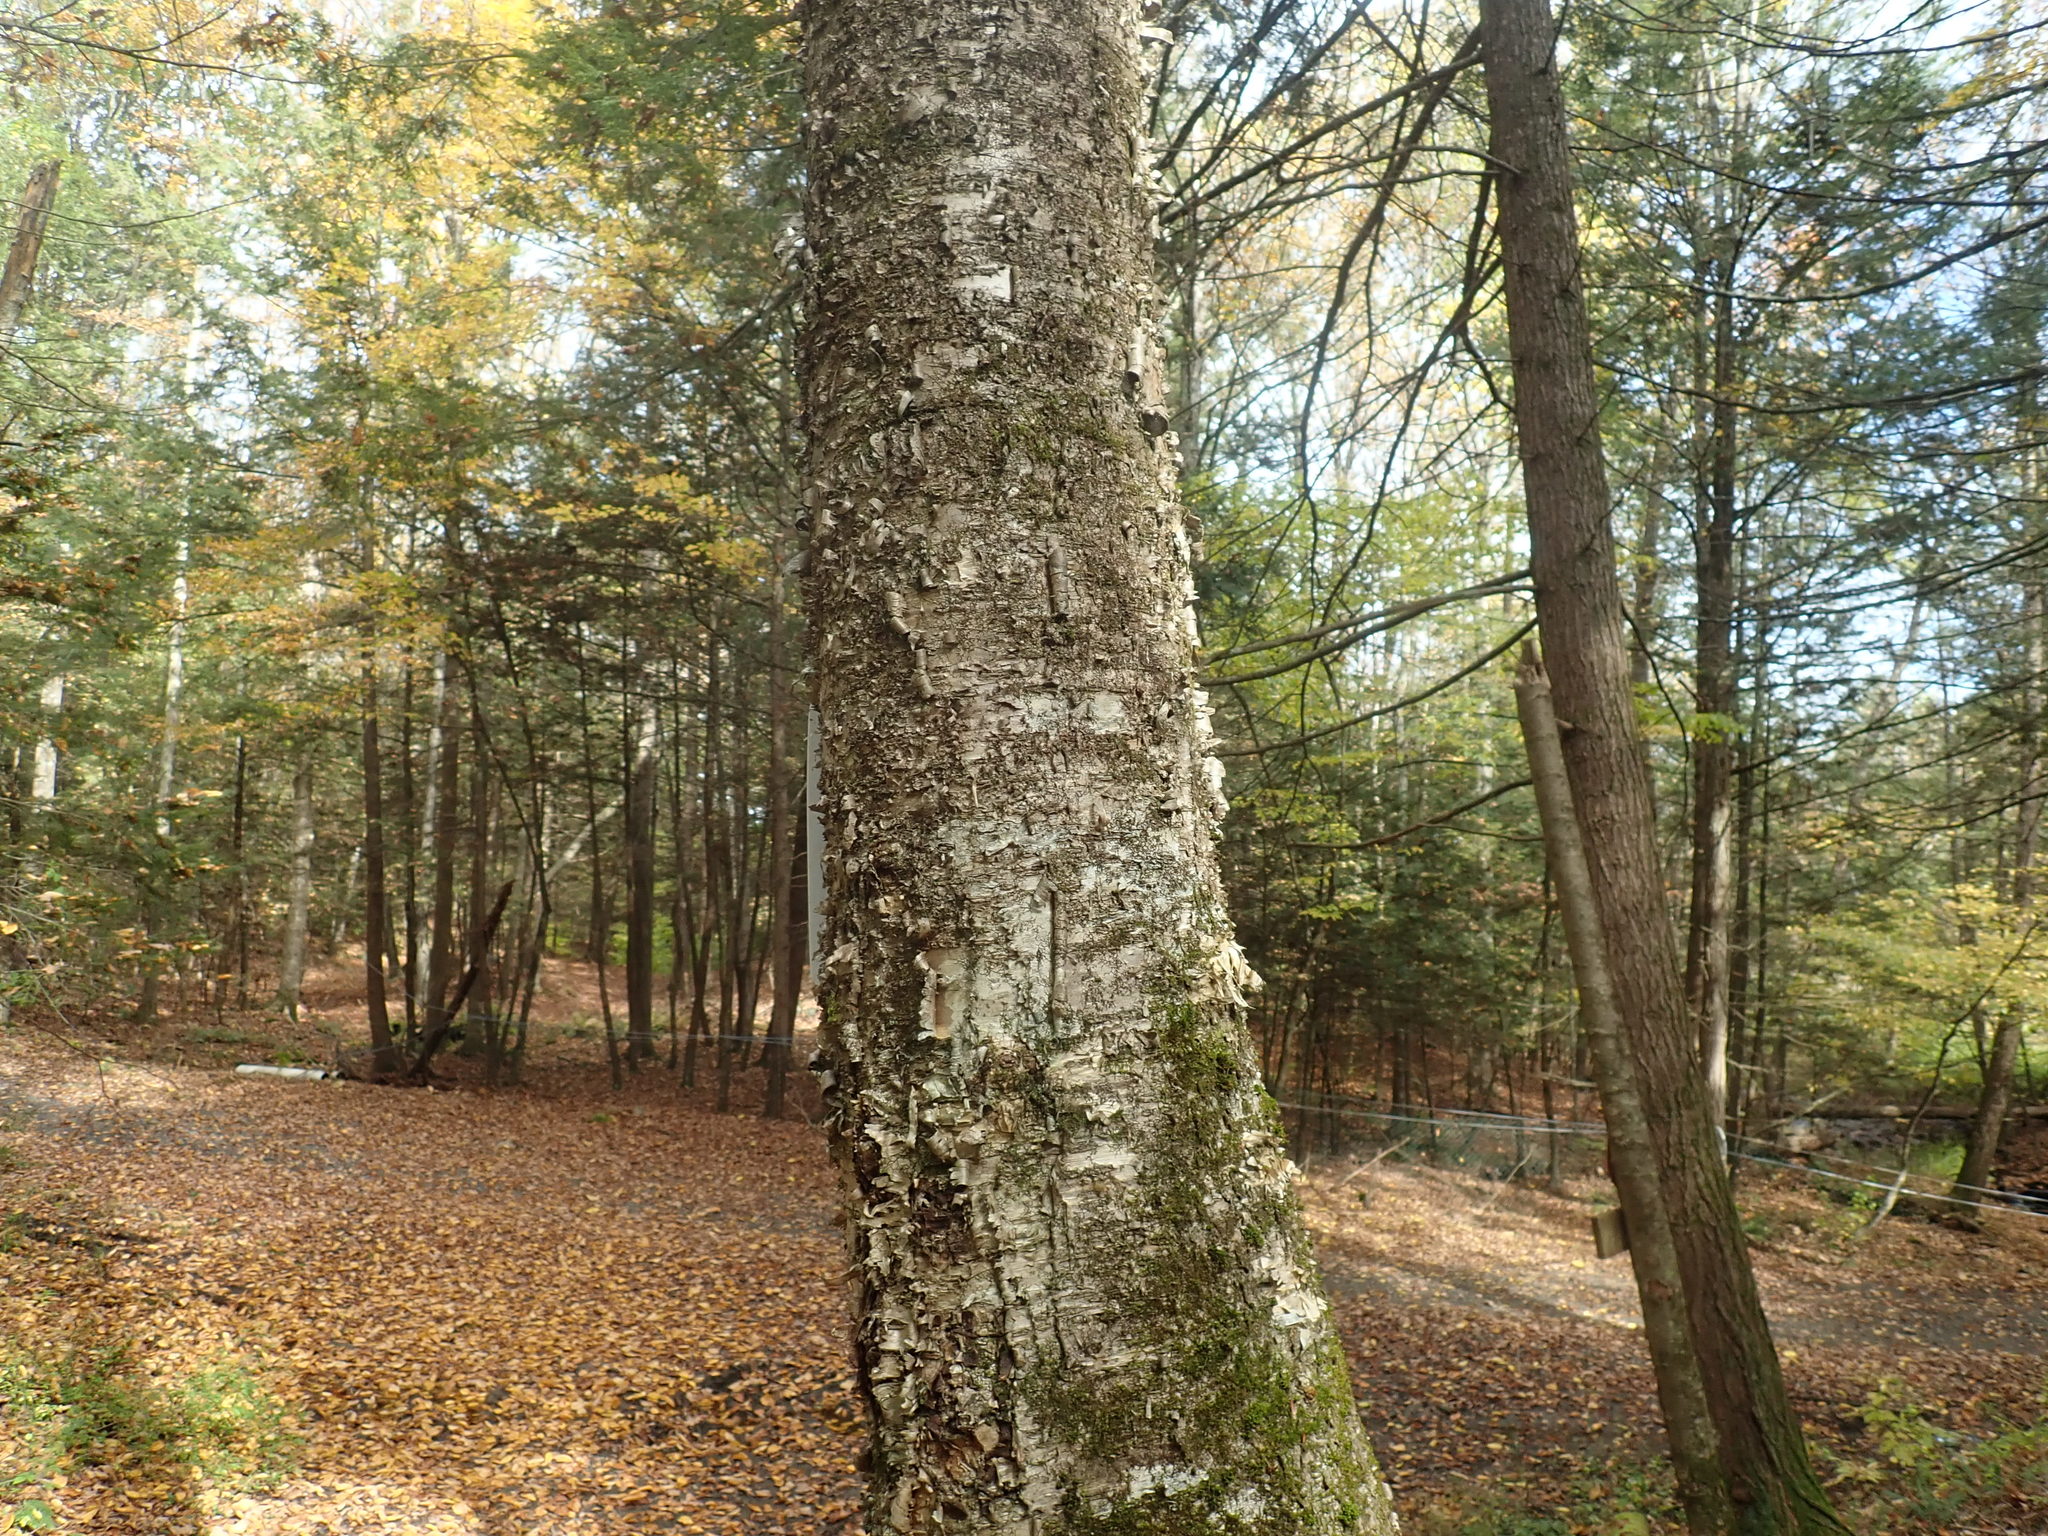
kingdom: Plantae
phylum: Tracheophyta
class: Magnoliopsida
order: Fagales
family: Betulaceae
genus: Betula
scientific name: Betula alleghaniensis
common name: Yellow birch
